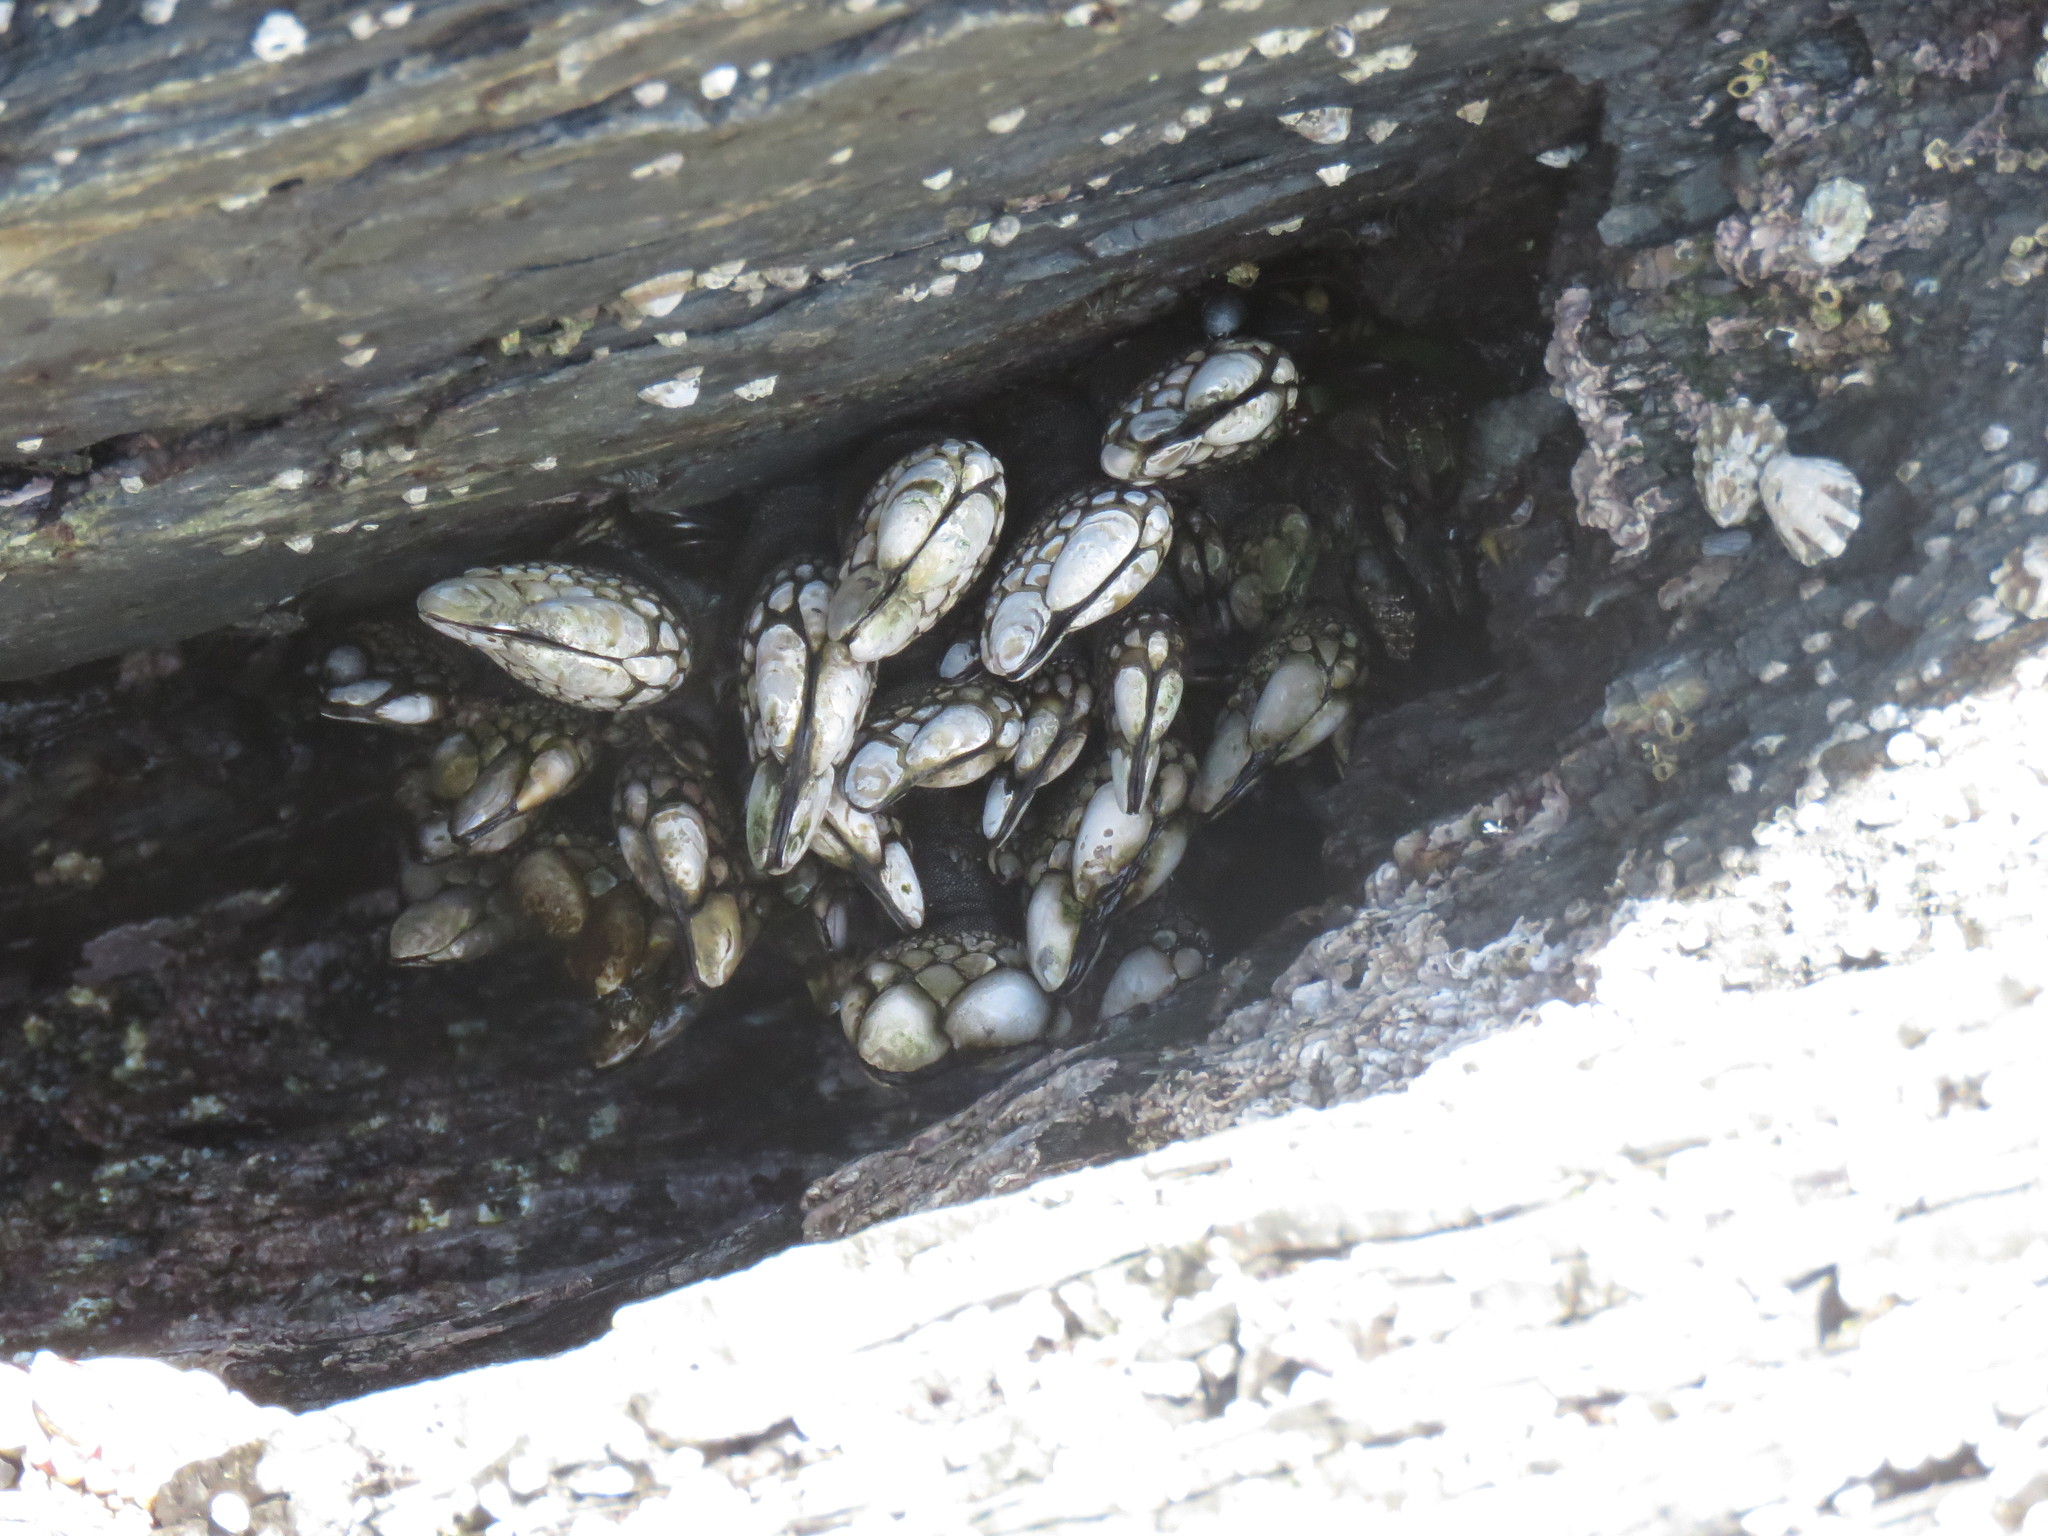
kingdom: Animalia
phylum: Arthropoda
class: Maxillopoda
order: Pedunculata
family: Pollicipedidae
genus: Pollicipes
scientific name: Pollicipes polymerus
